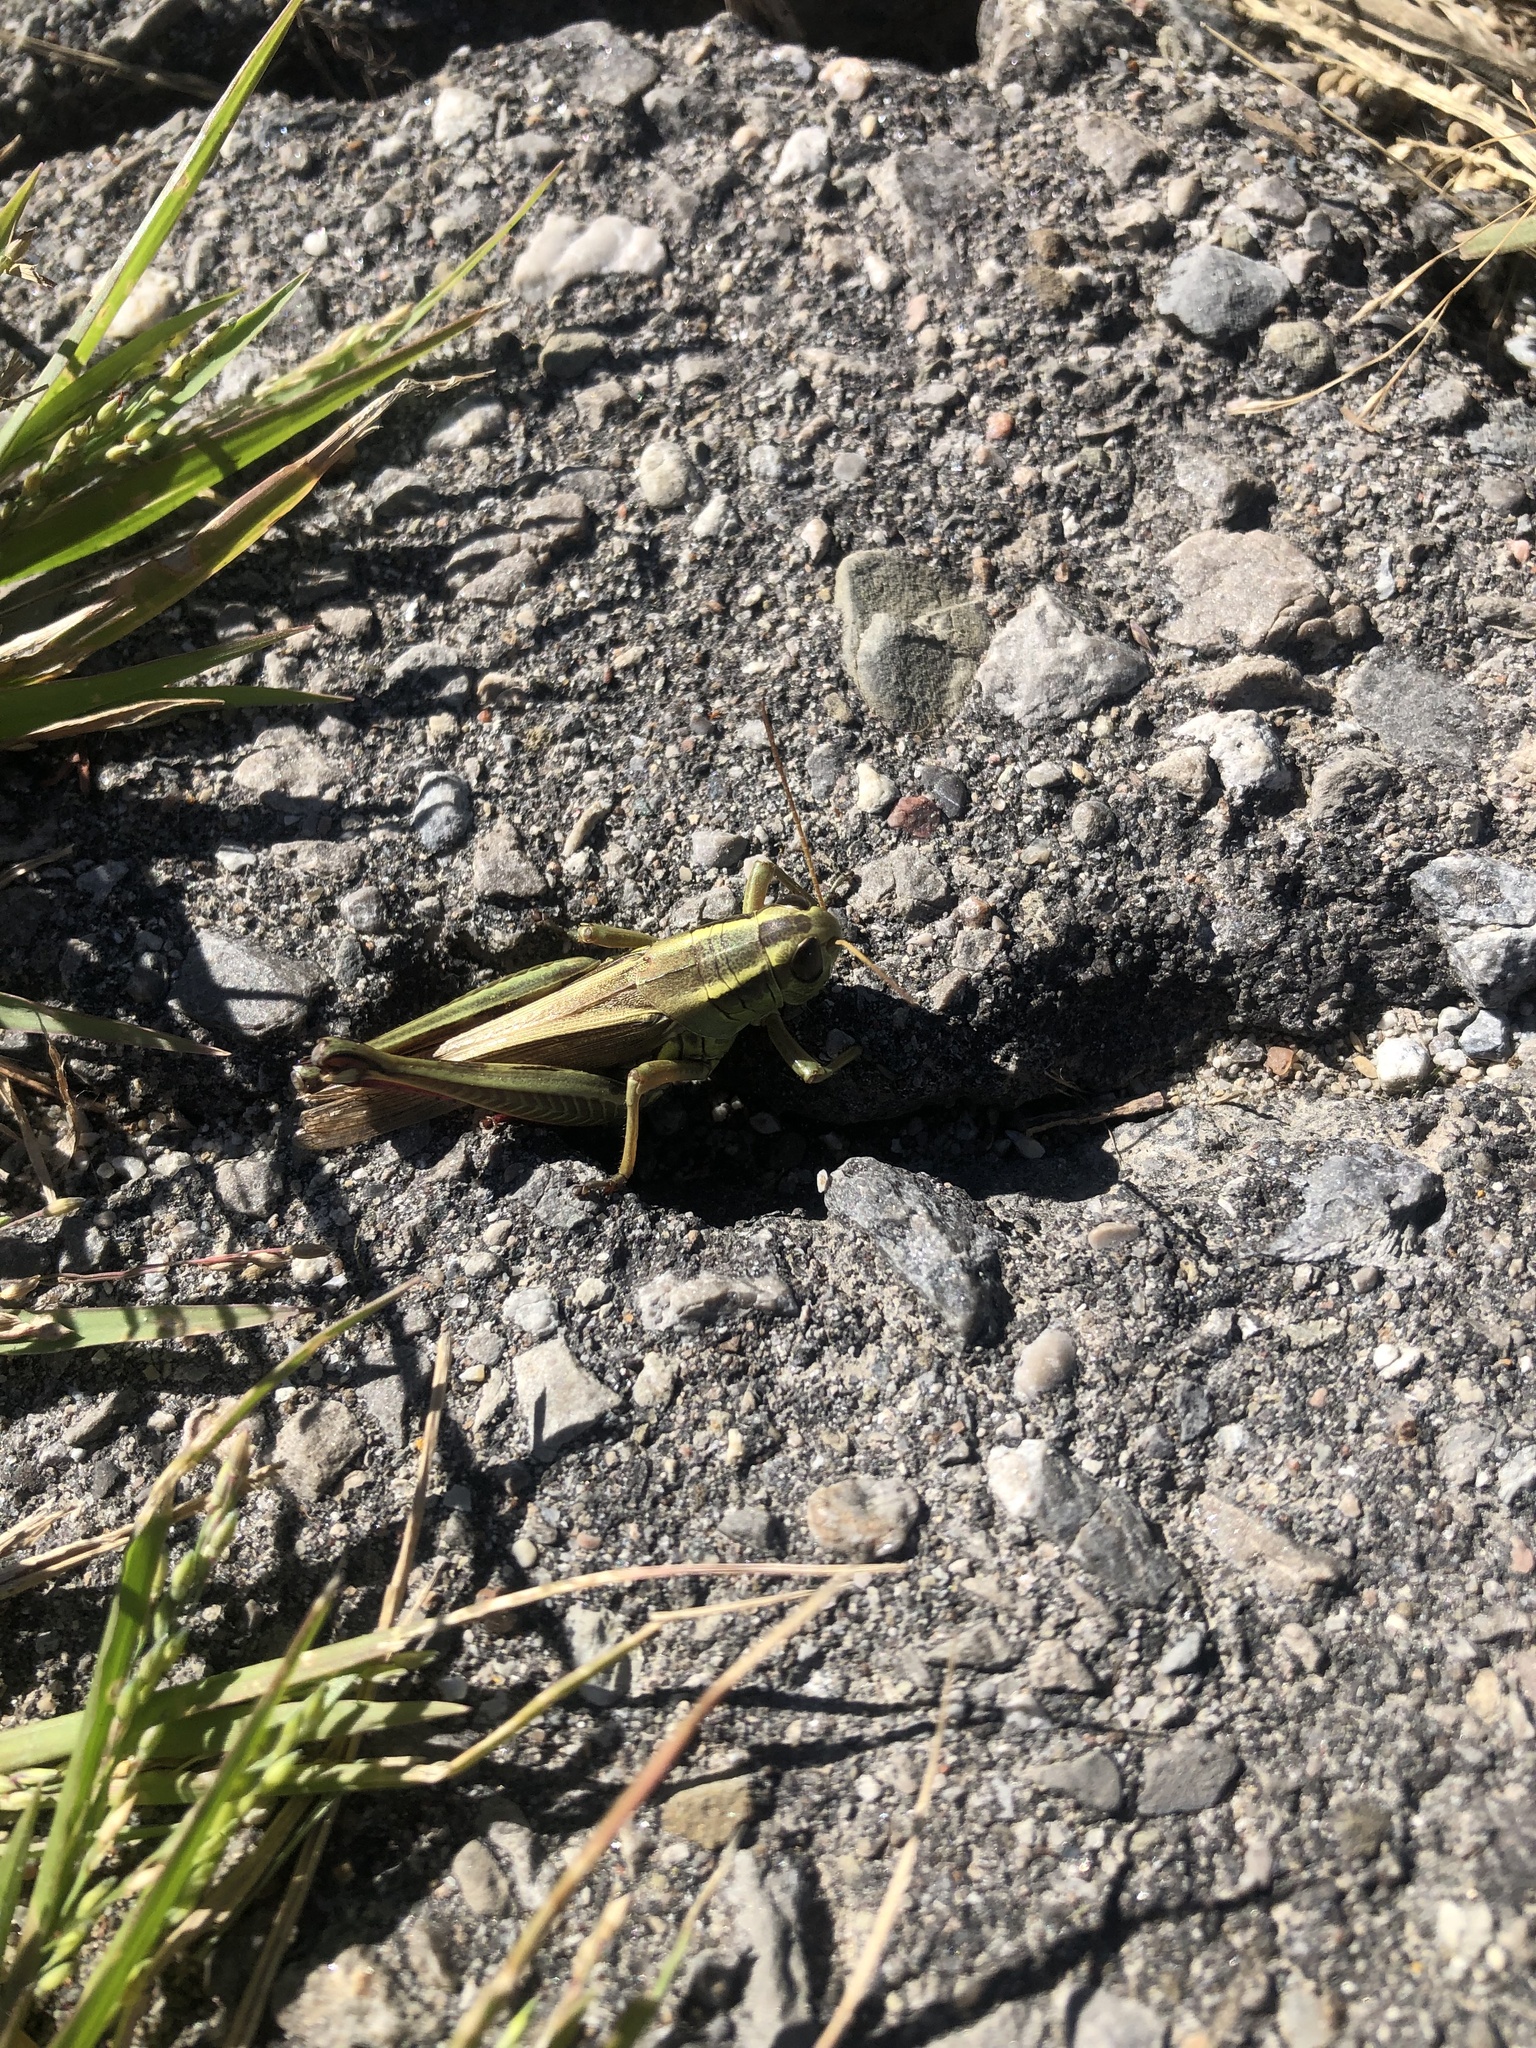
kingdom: Animalia
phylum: Arthropoda
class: Insecta
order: Orthoptera
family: Acrididae
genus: Melanoplus
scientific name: Melanoplus bivittatus
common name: Two-striped grasshopper
